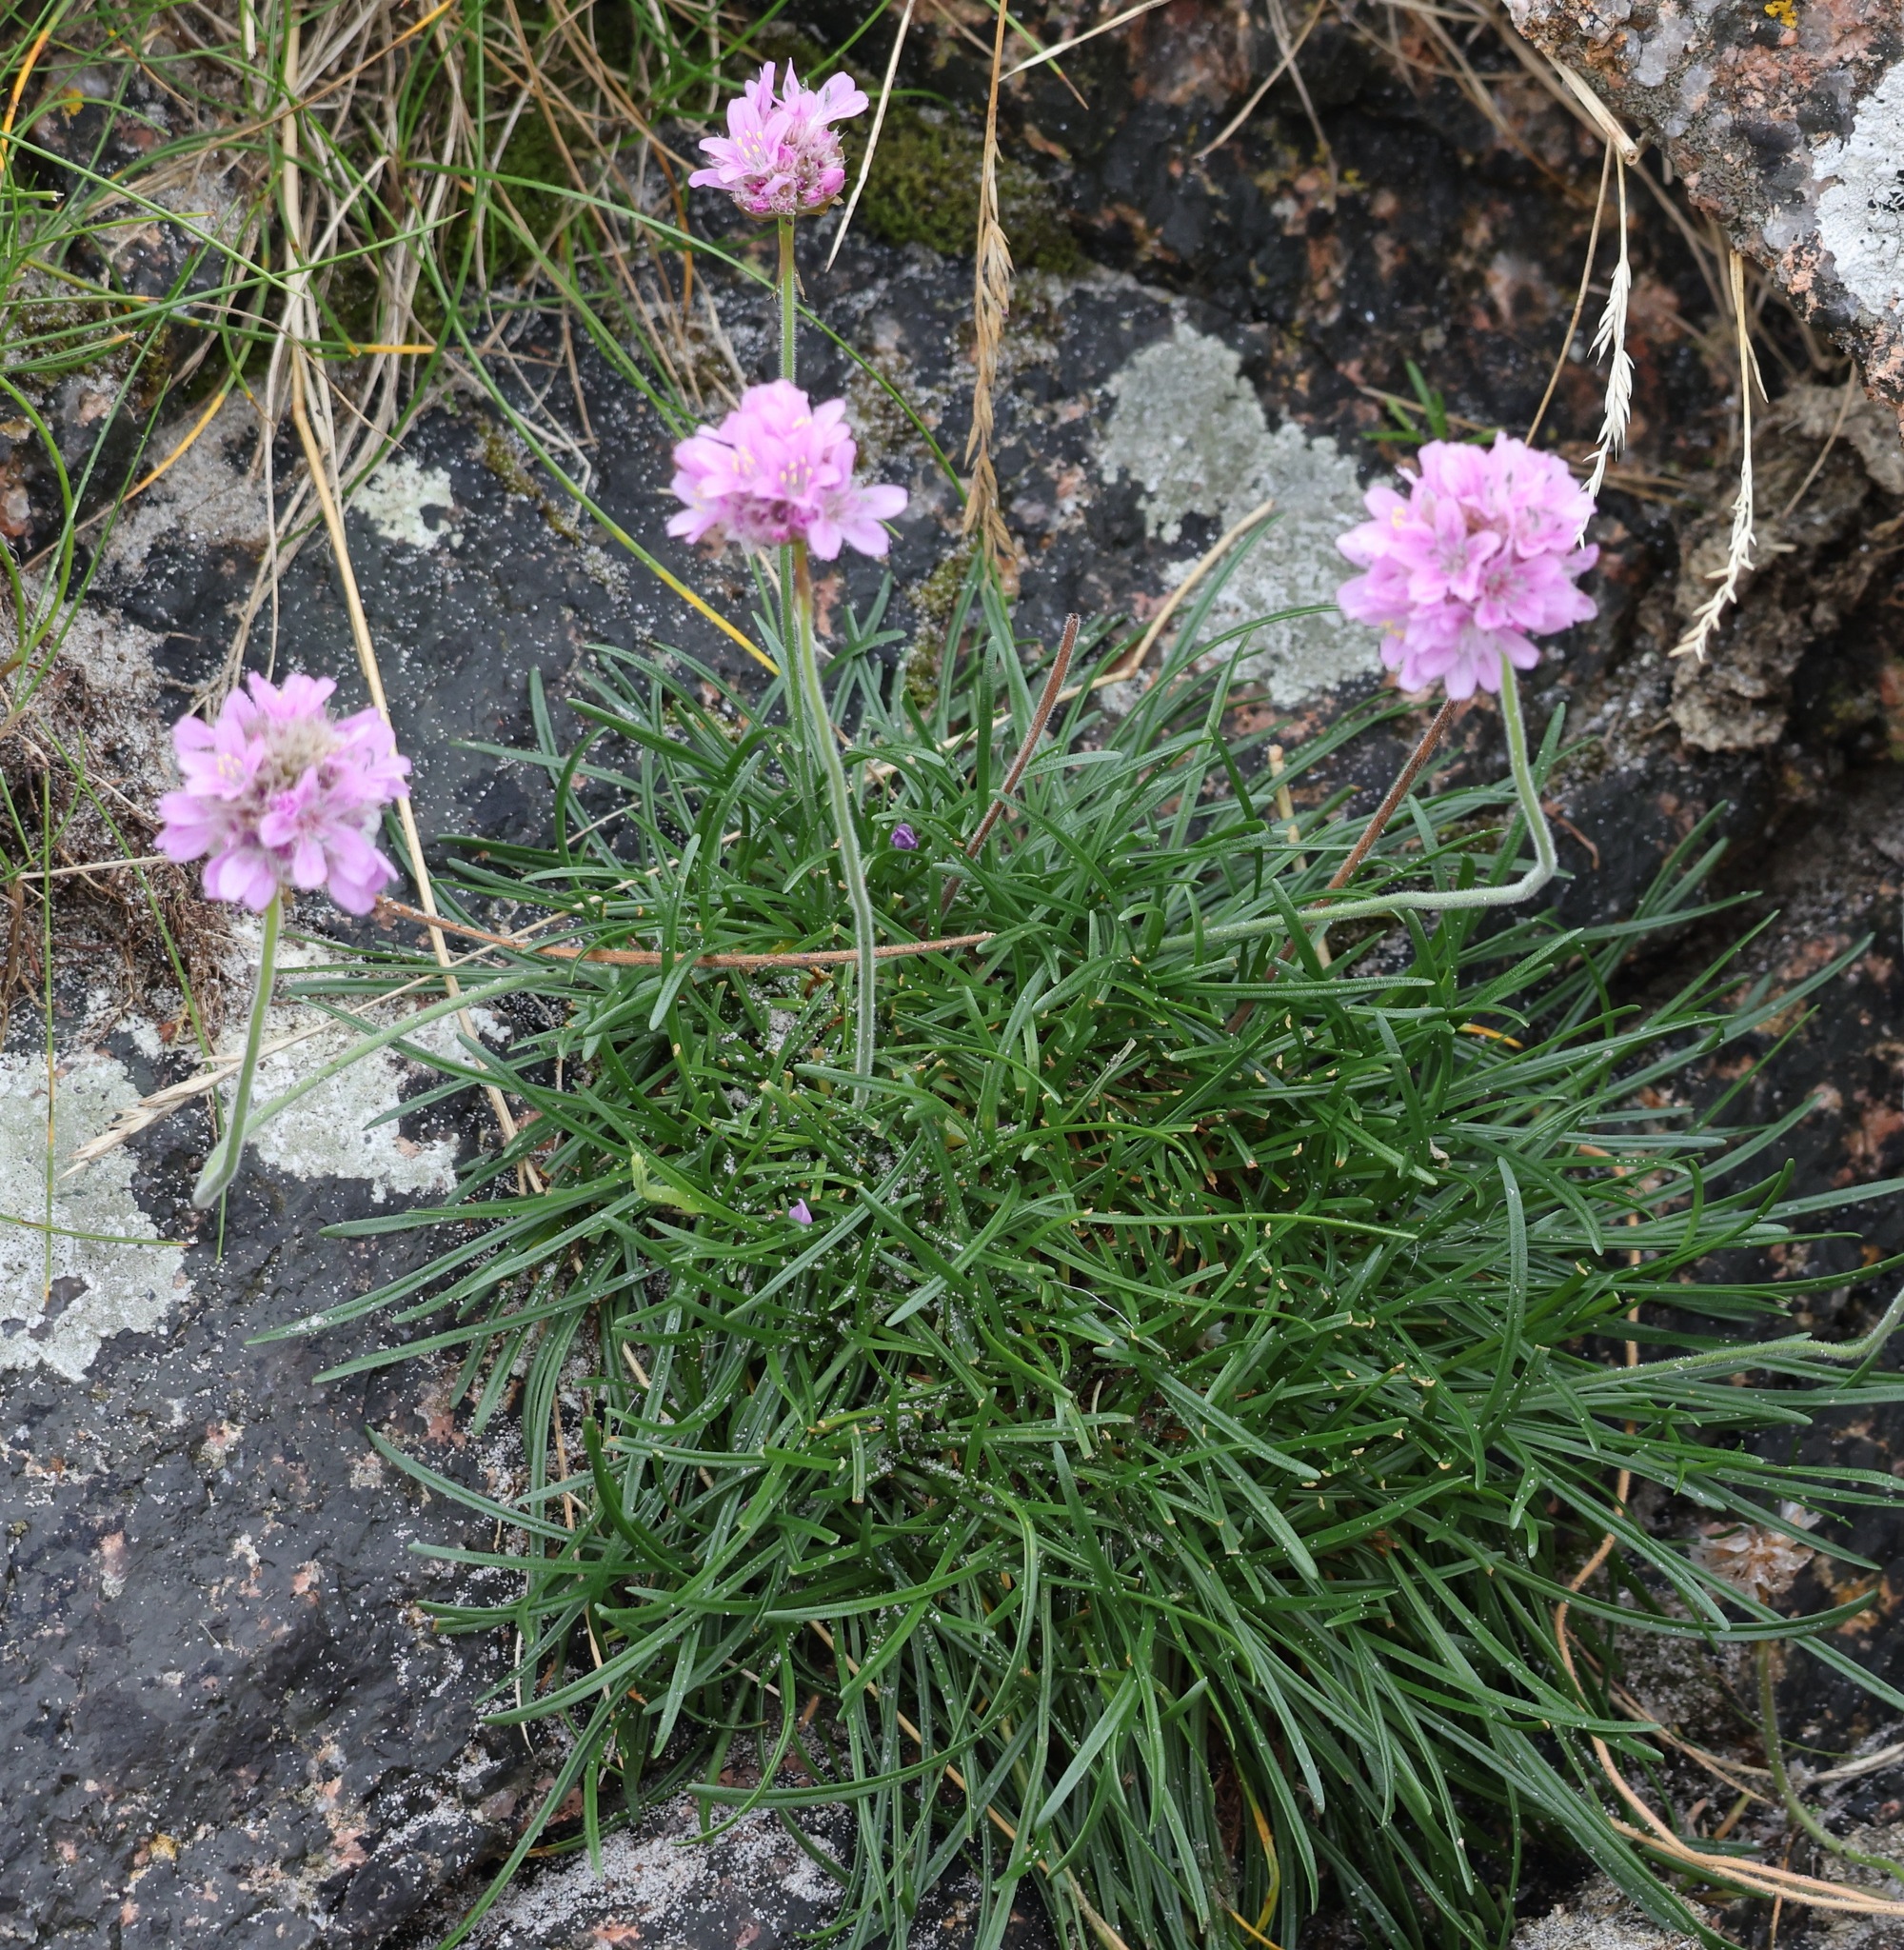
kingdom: Plantae
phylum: Tracheophyta
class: Magnoliopsida
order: Caryophyllales
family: Plumbaginaceae
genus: Armeria
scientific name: Armeria maritima
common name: Thrift
